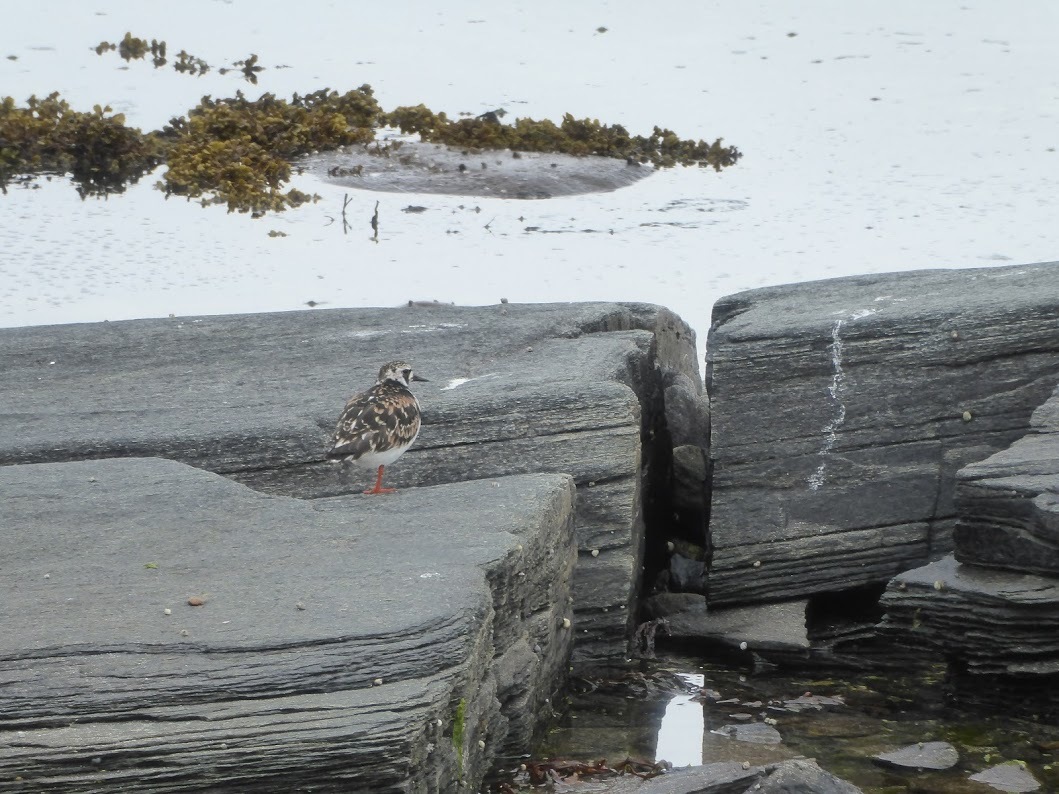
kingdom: Animalia
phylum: Chordata
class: Aves
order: Charadriiformes
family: Scolopacidae
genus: Arenaria
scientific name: Arenaria interpres
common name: Ruddy turnstone
